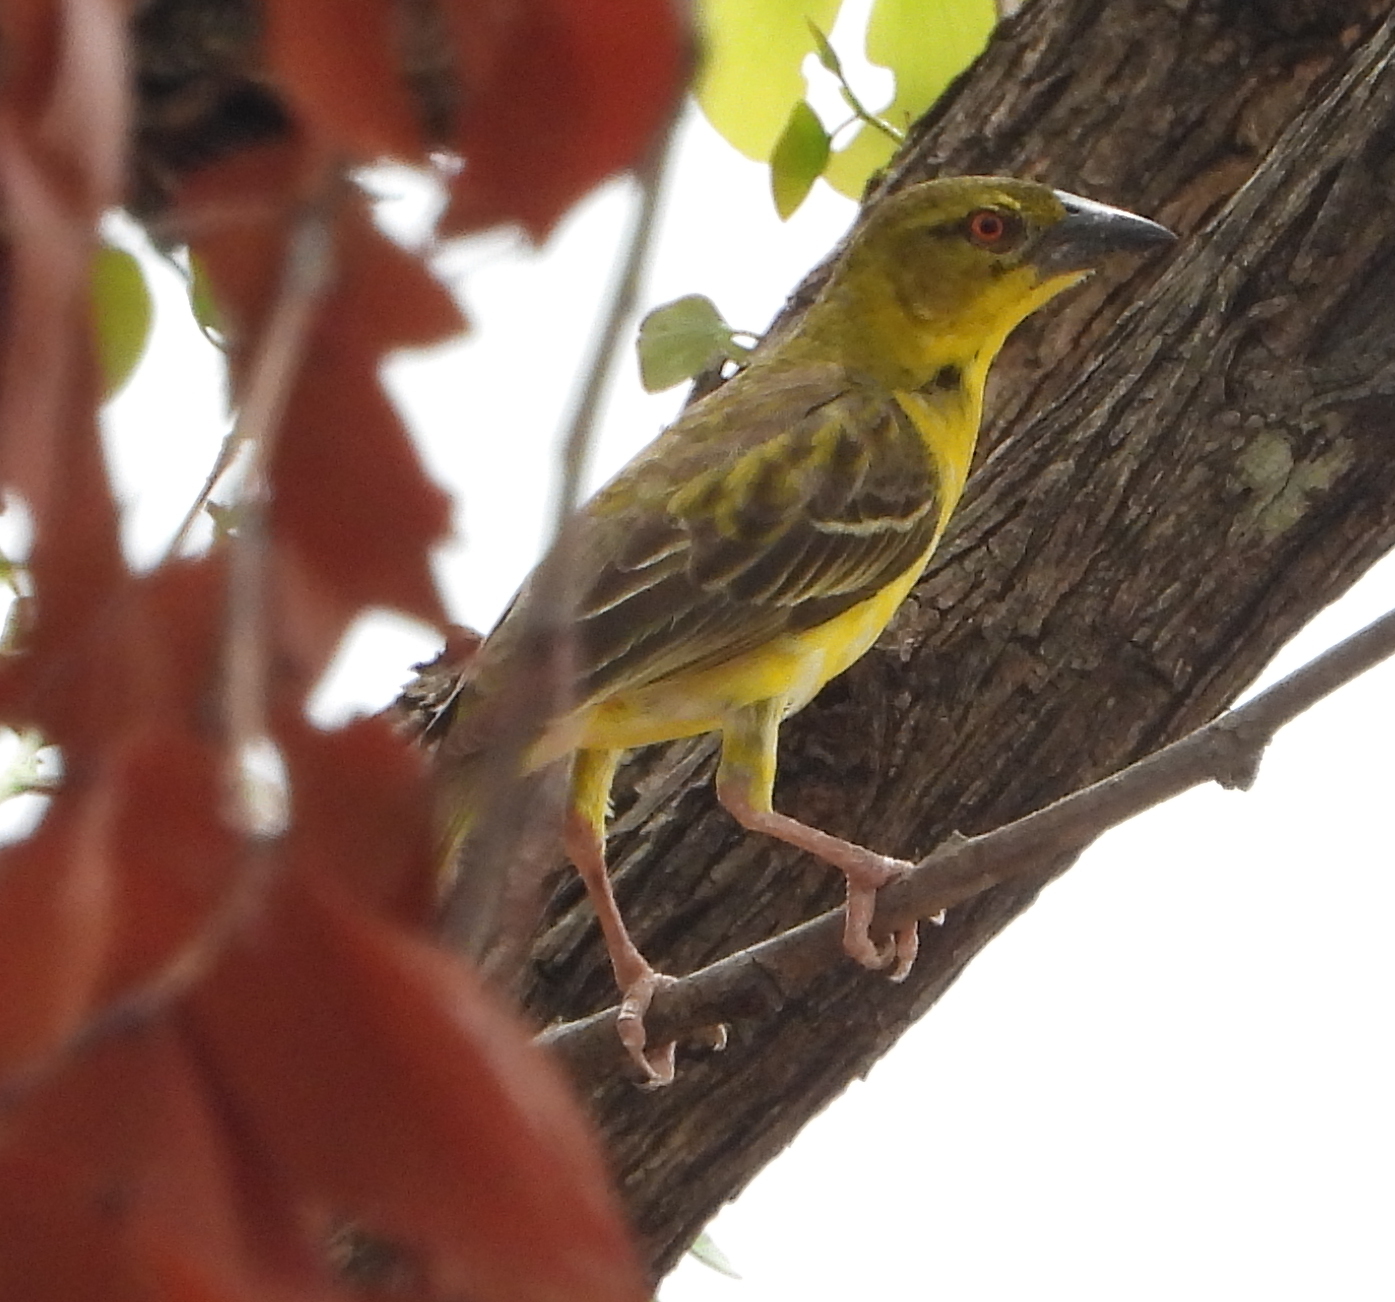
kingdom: Animalia
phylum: Chordata
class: Aves
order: Passeriformes
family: Ploceidae
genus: Ploceus
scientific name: Ploceus cucullatus
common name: Village weaver
